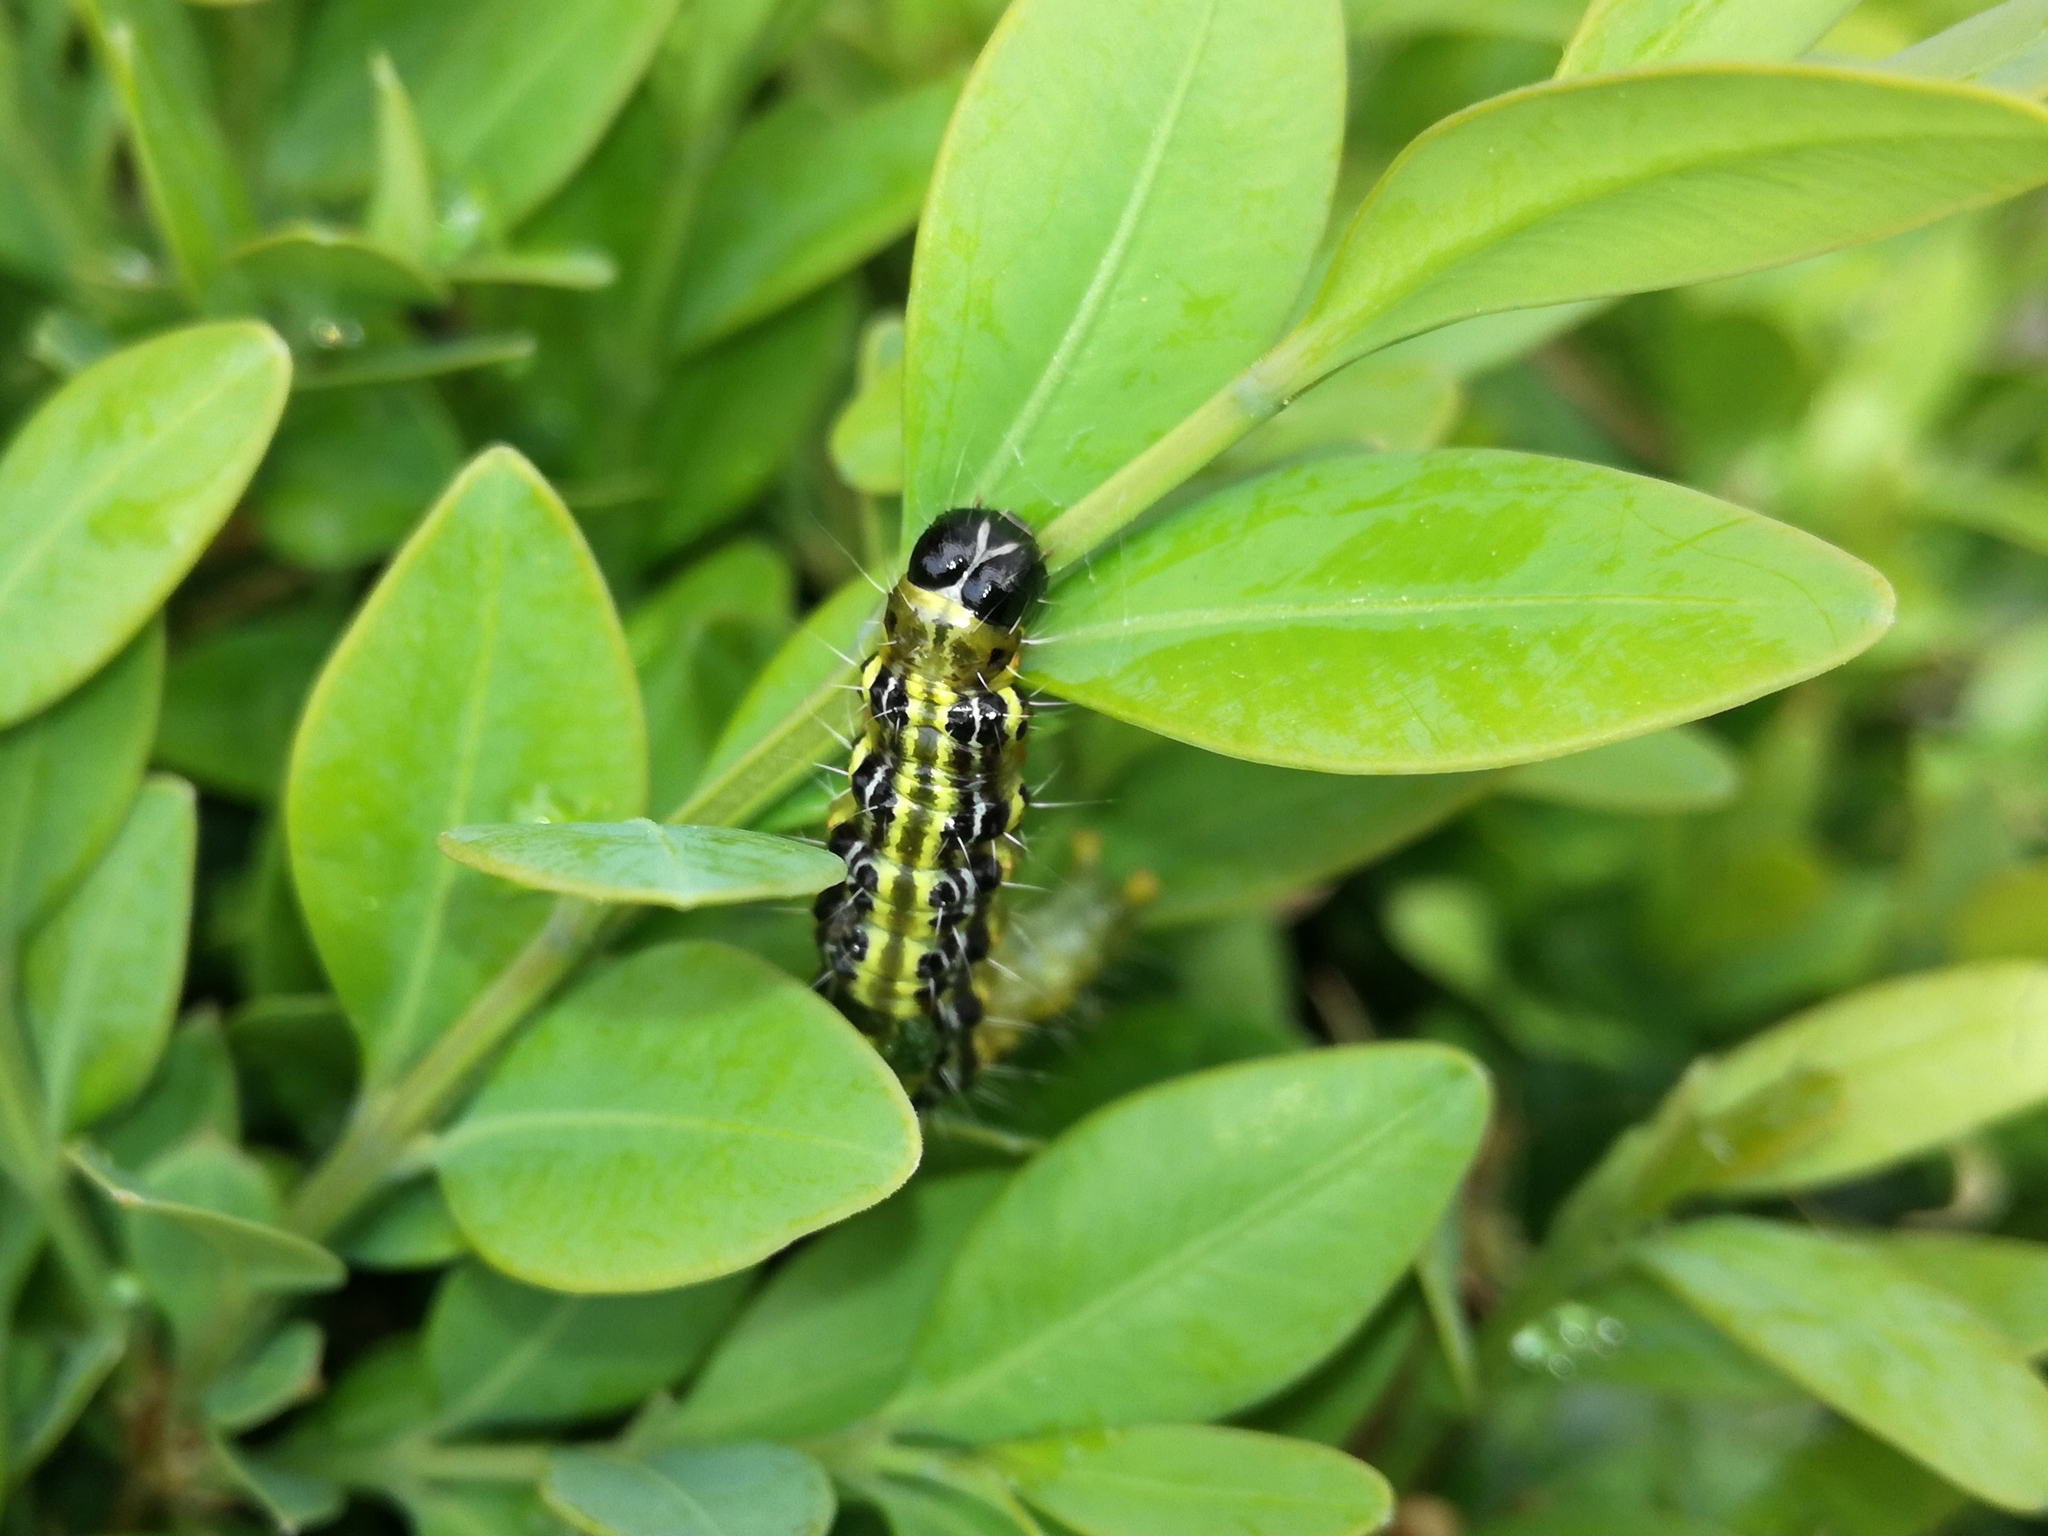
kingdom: Animalia
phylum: Arthropoda
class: Insecta
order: Lepidoptera
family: Crambidae
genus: Cydalima
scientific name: Cydalima perspectalis
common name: Box tree moth
